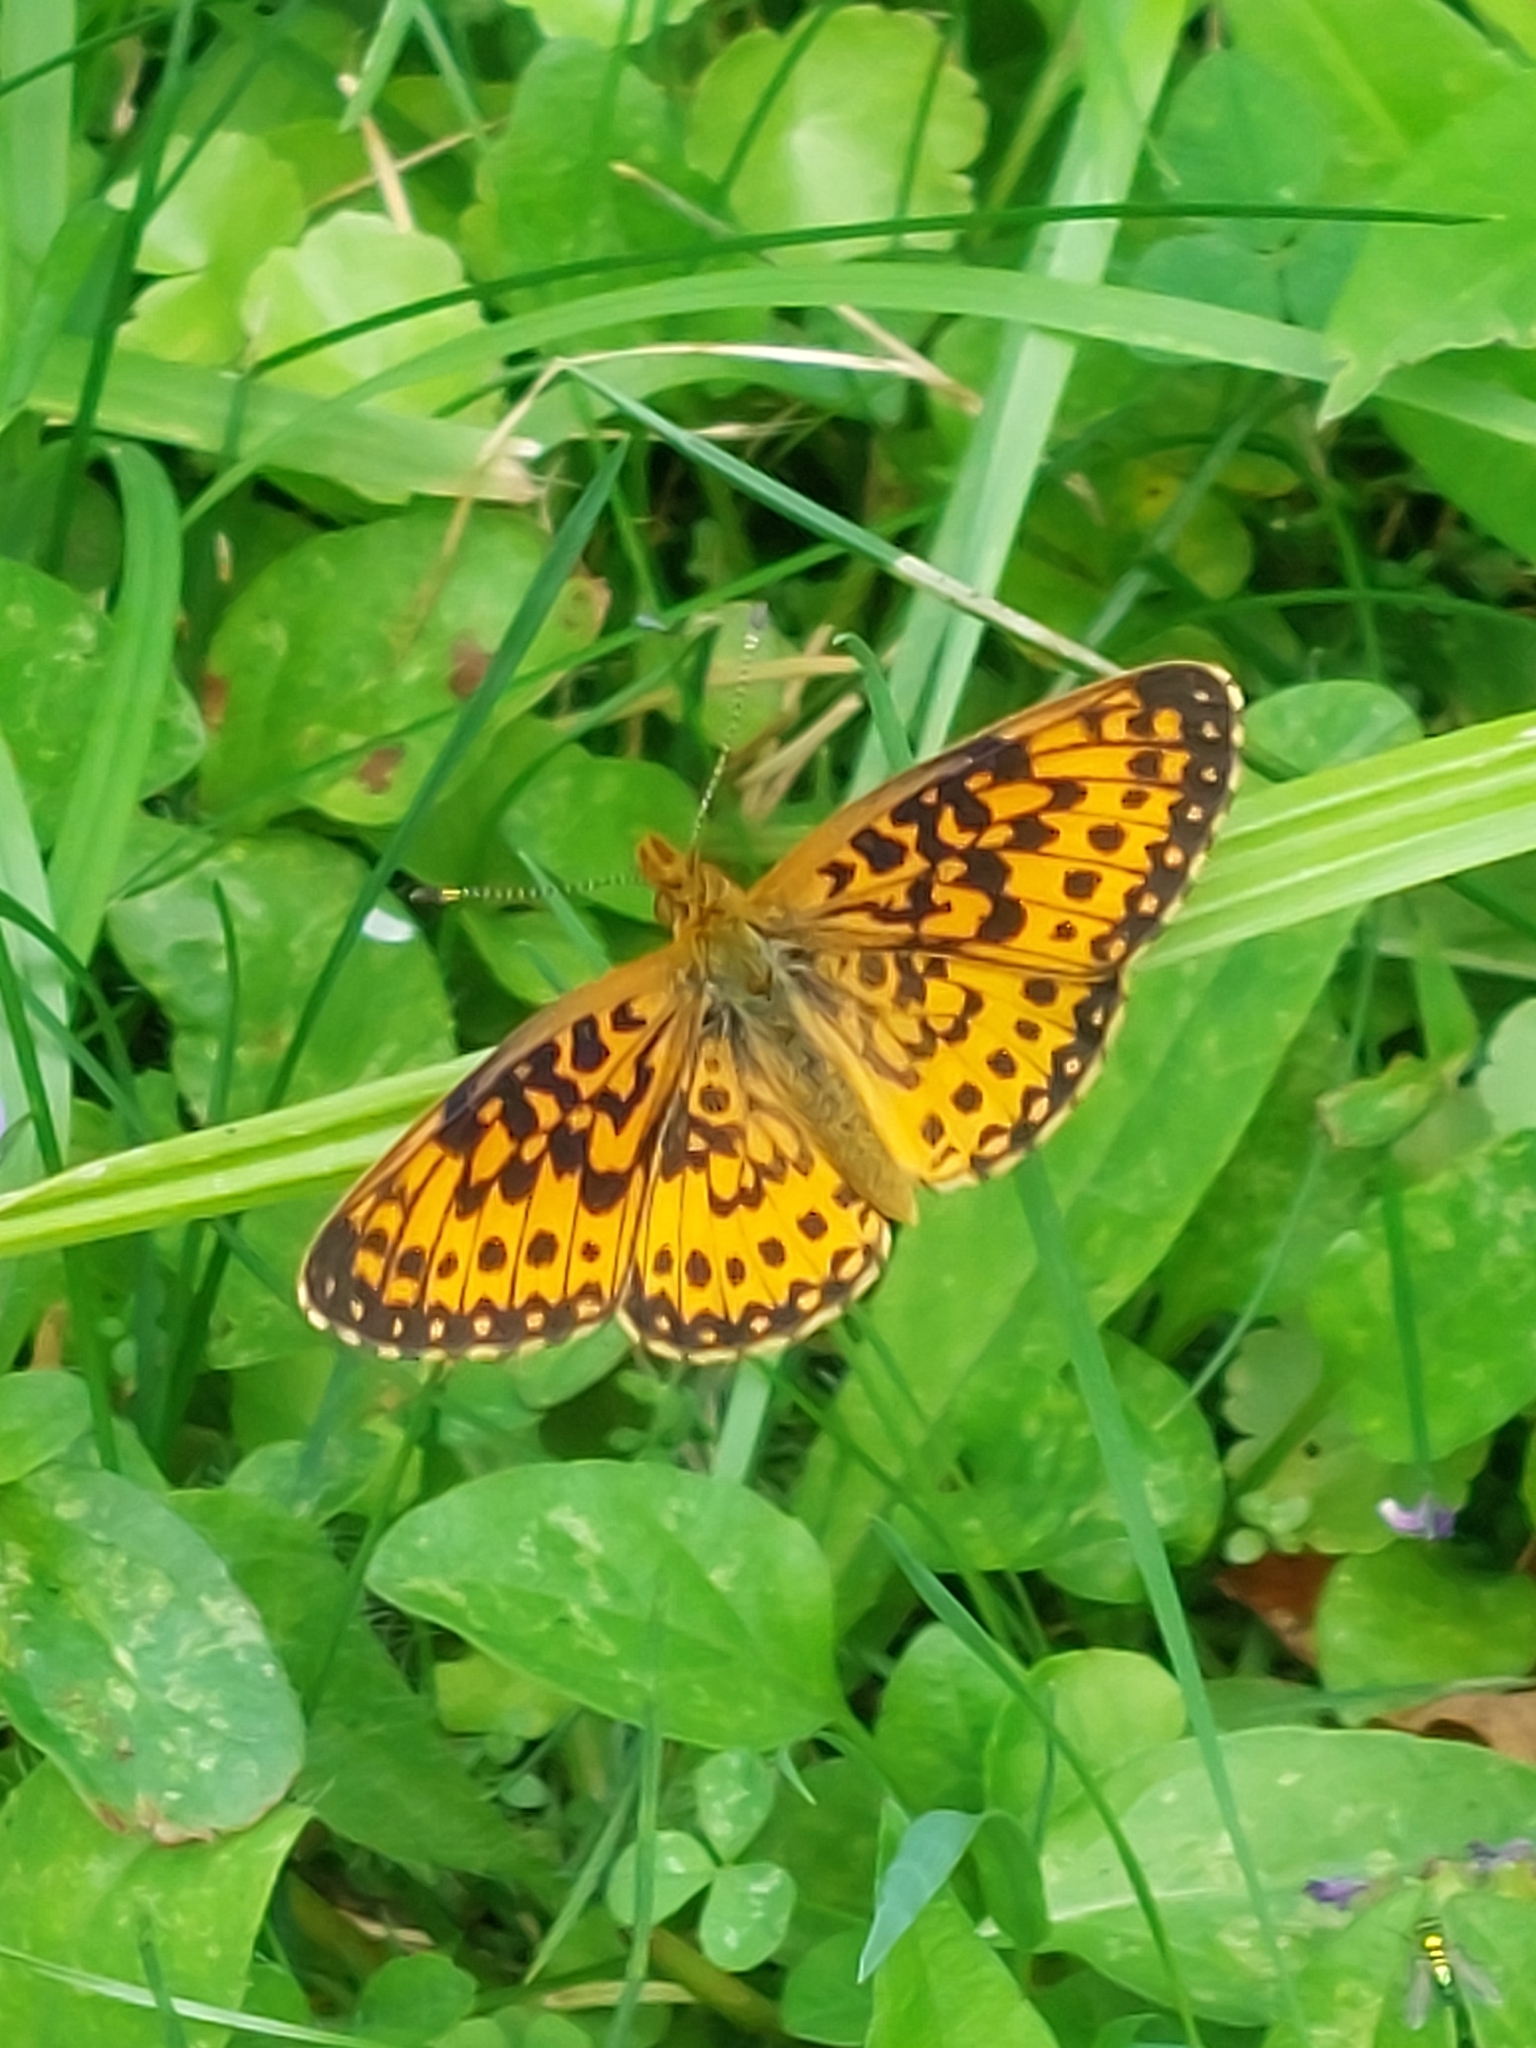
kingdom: Animalia
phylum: Arthropoda
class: Insecta
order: Lepidoptera
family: Nymphalidae
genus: Boloria
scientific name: Boloria
